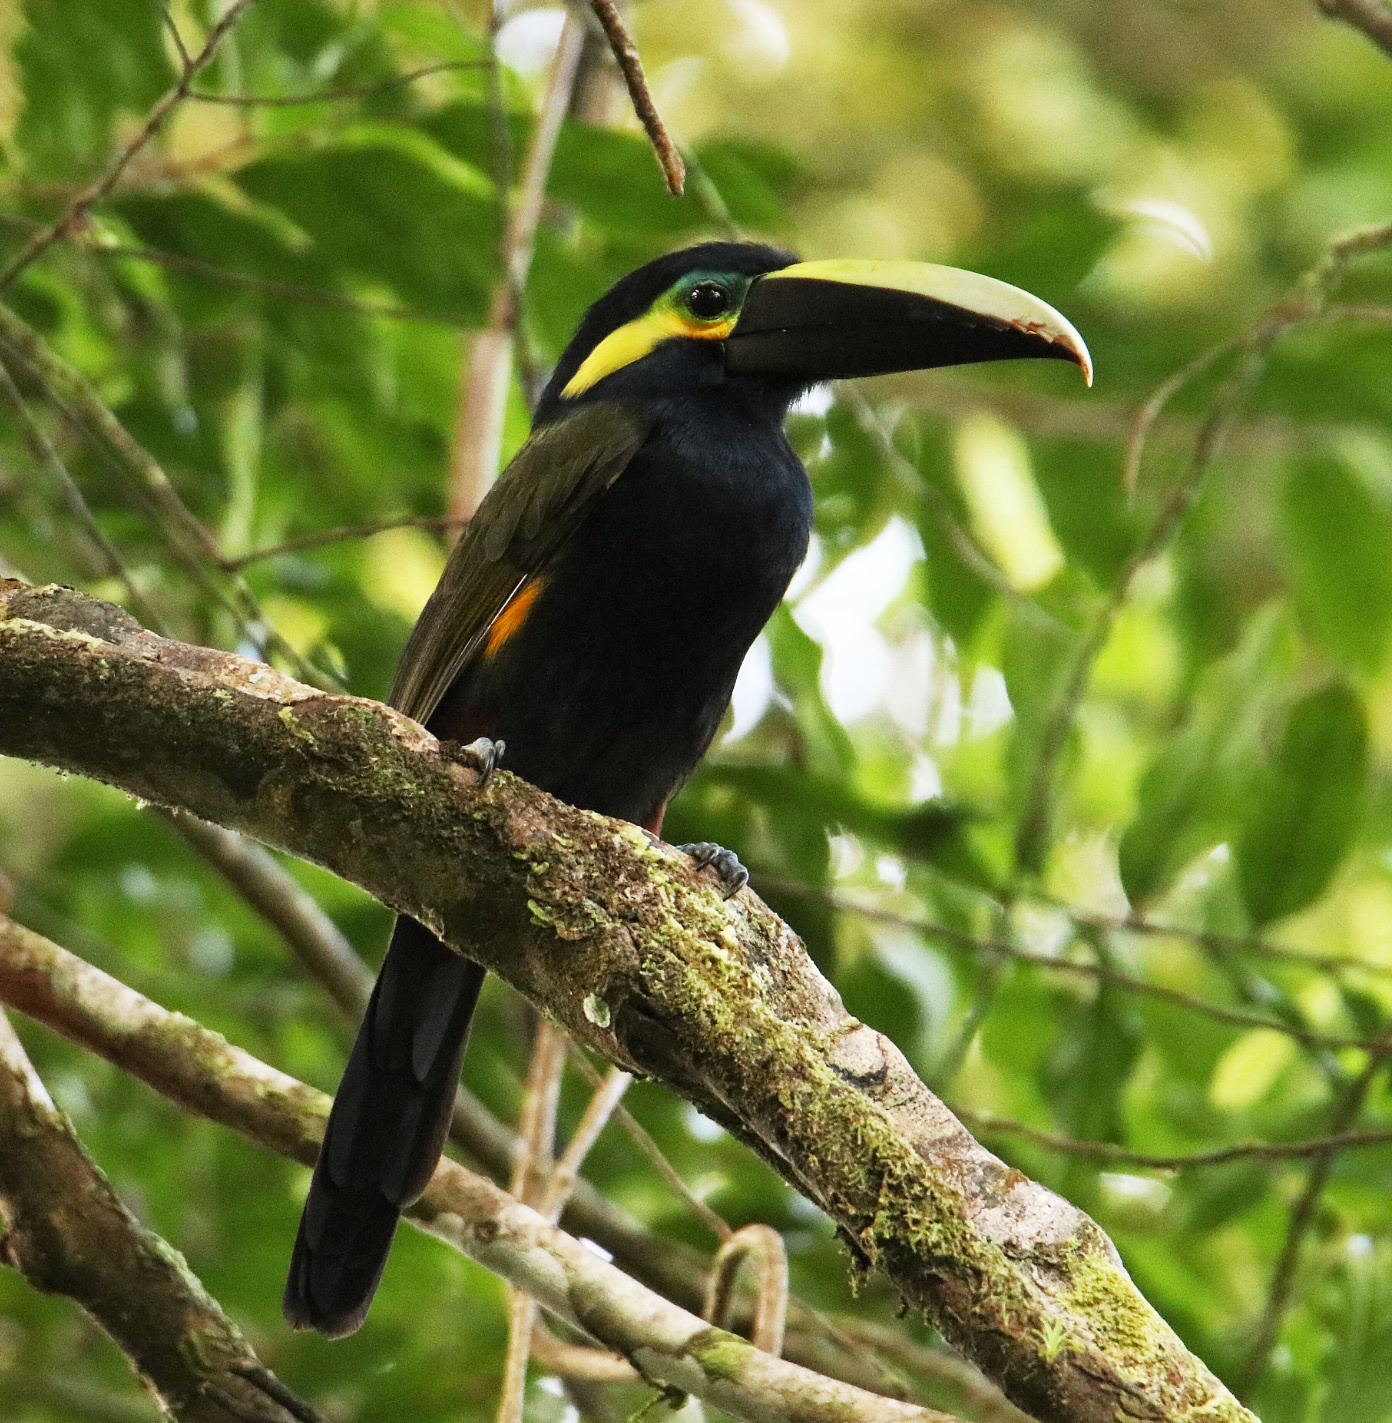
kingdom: Animalia
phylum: Chordata
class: Aves
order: Piciformes
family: Ramphastidae
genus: Selenidera
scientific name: Selenidera spectabilis
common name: Yellow-eared toucanet
